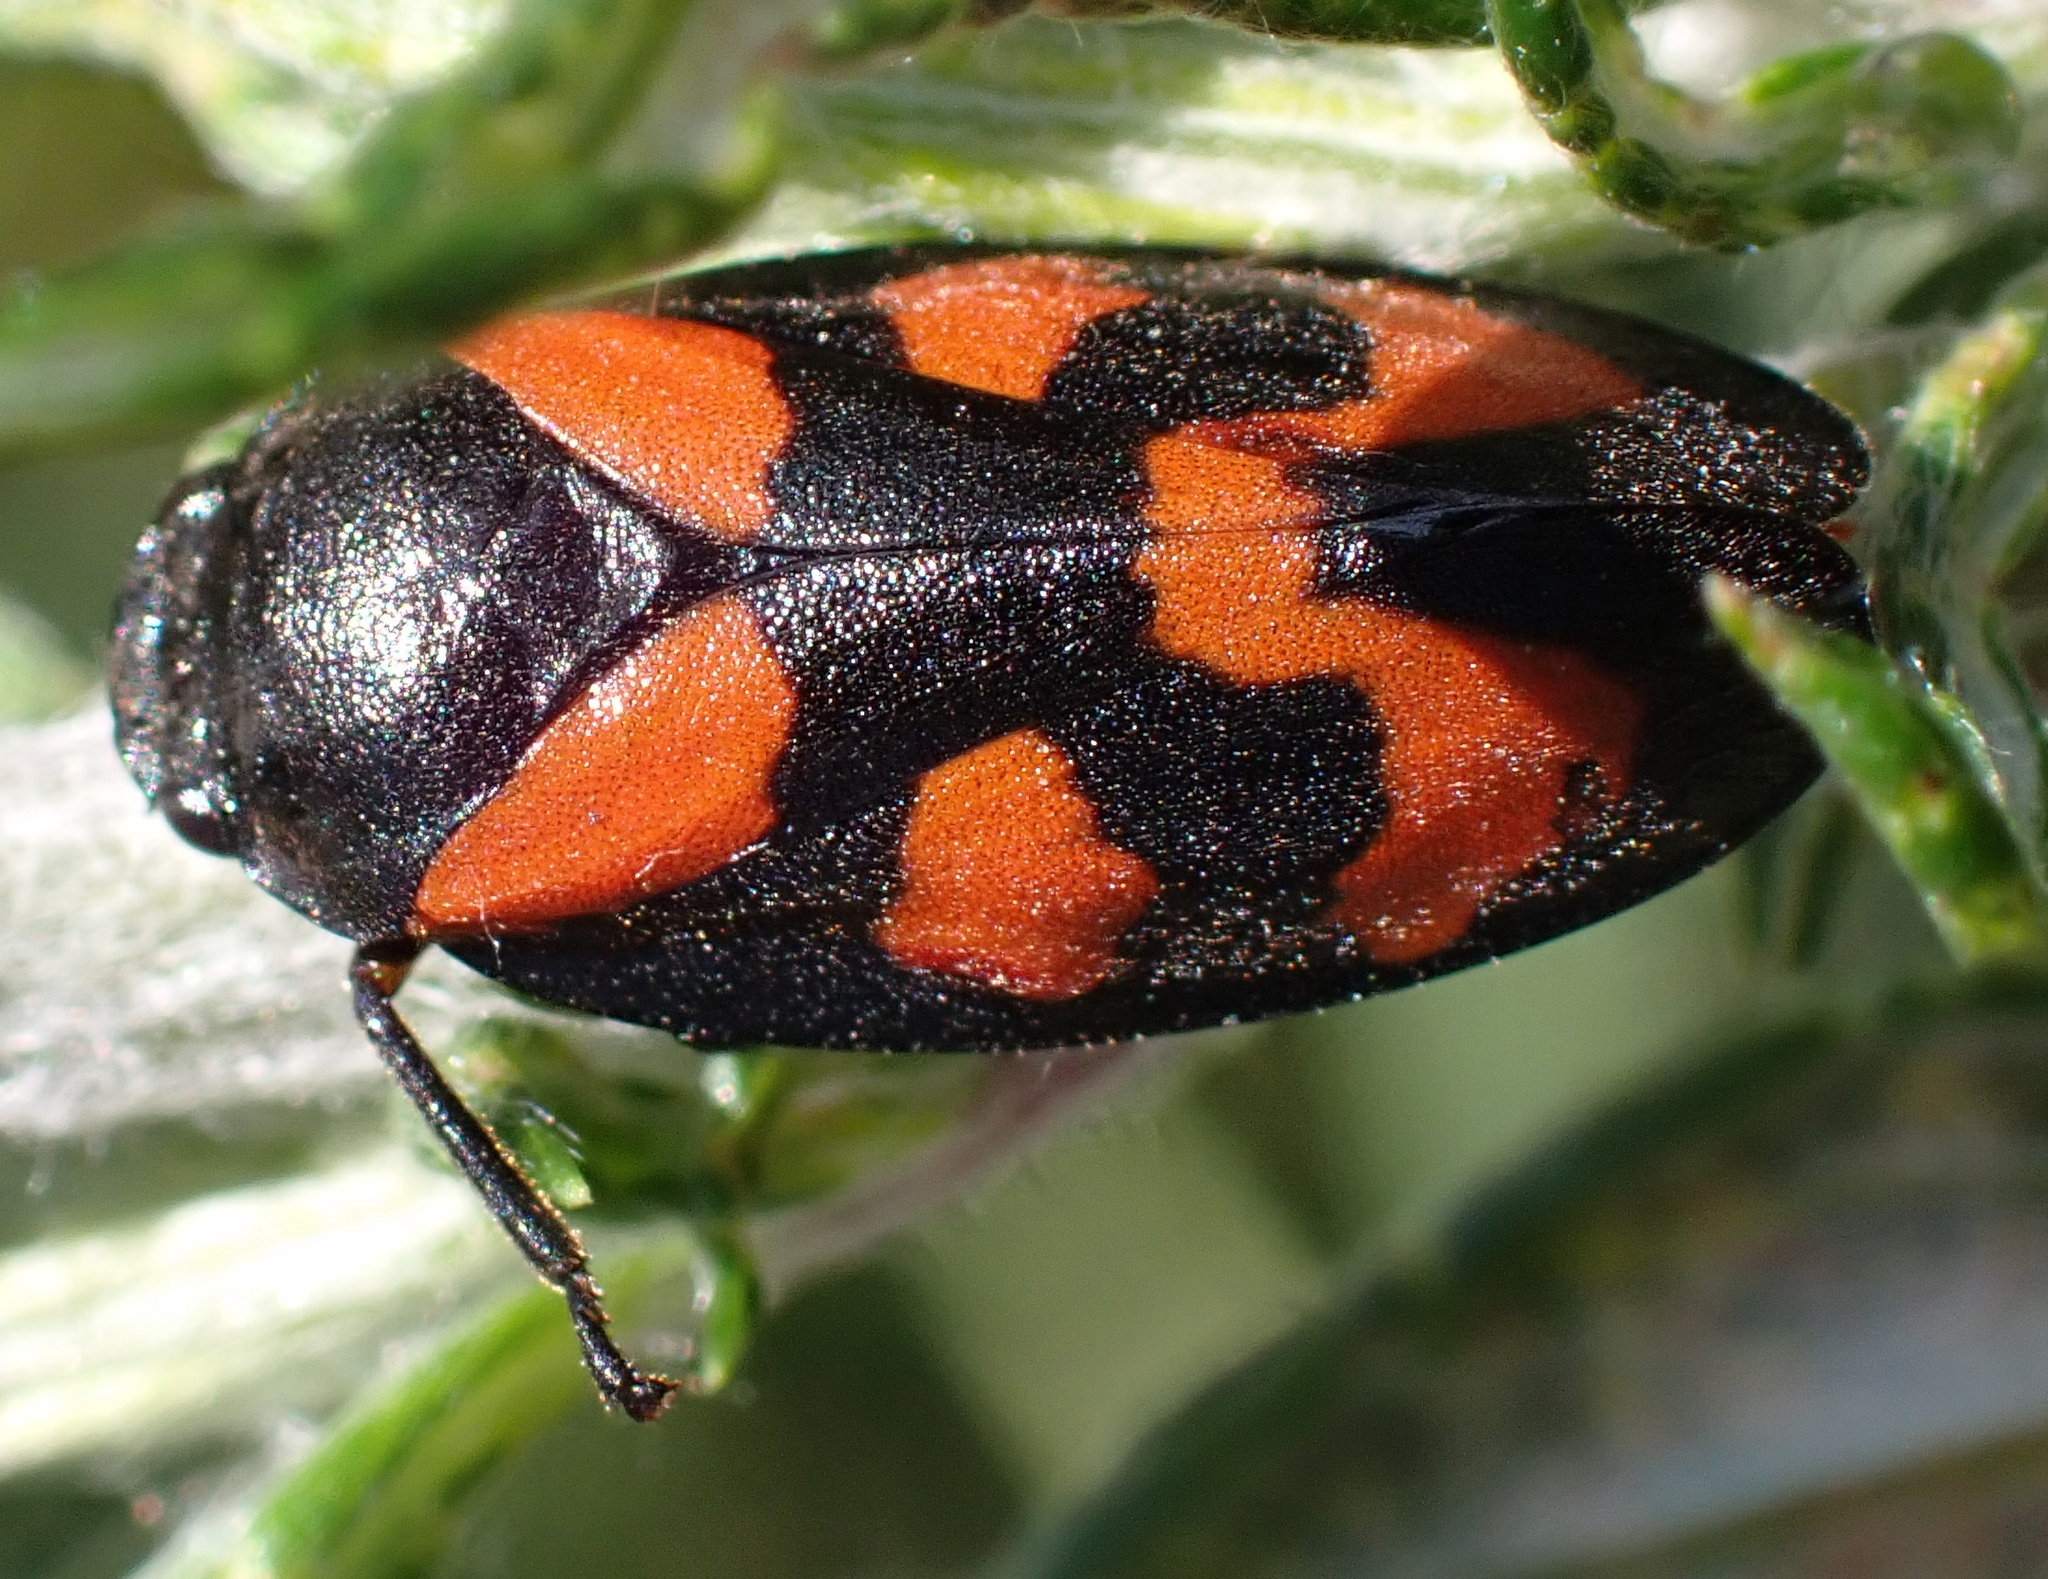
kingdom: Animalia
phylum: Arthropoda
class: Insecta
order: Hemiptera
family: Cercopidae
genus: Cercopis
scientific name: Cercopis vulnerata
